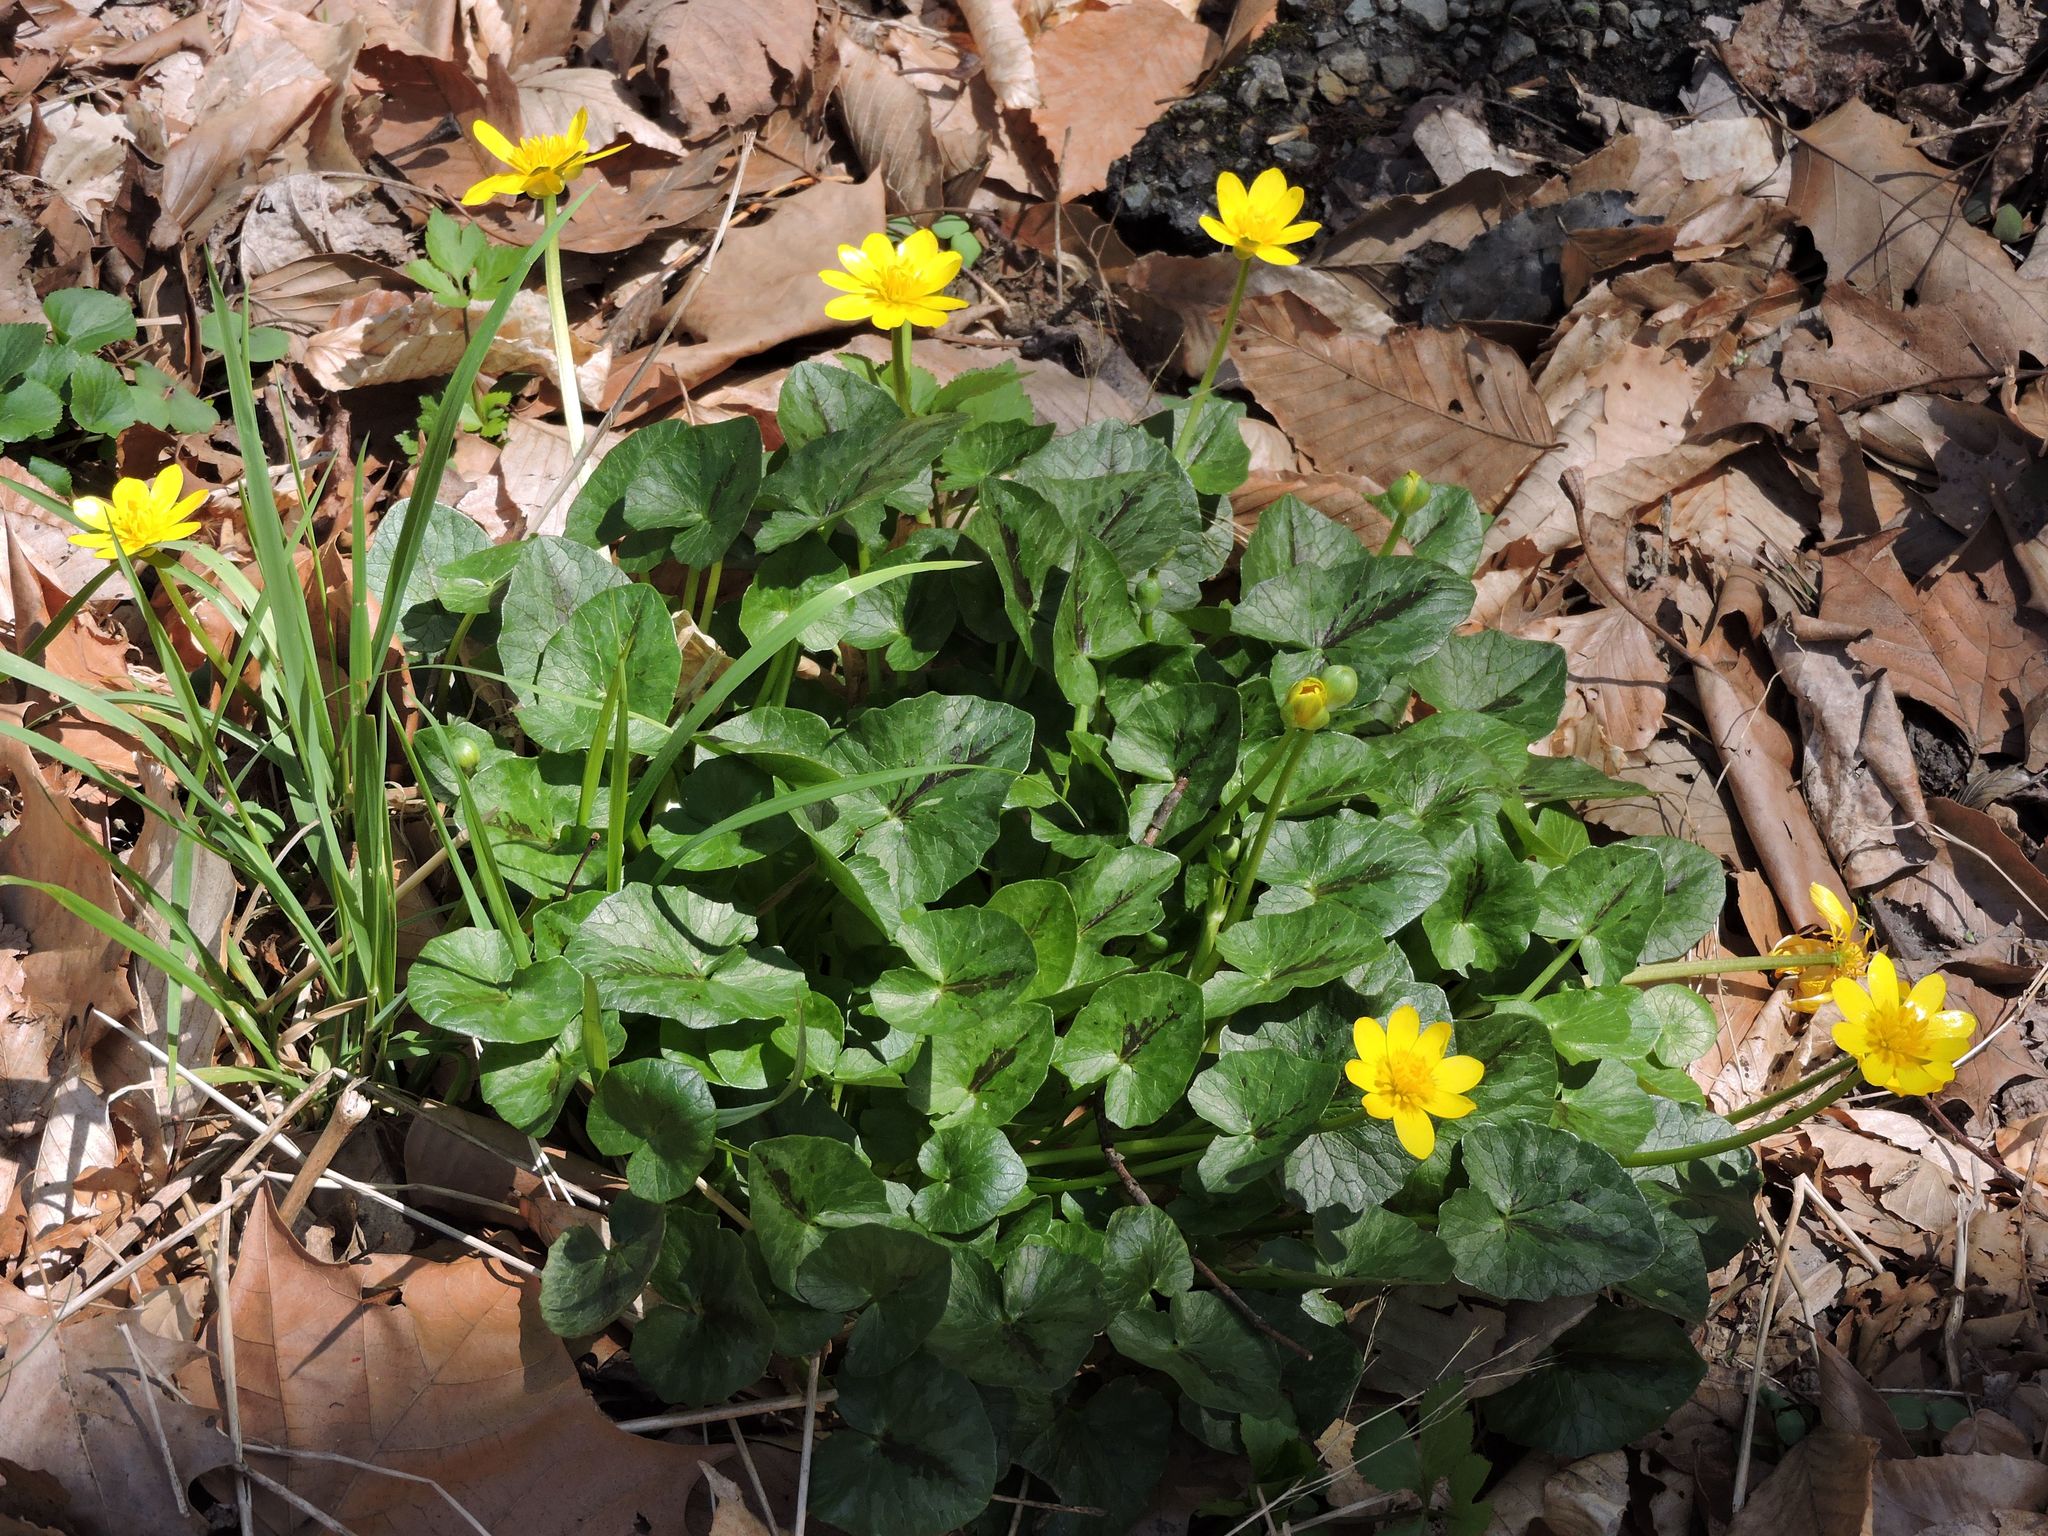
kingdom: Plantae
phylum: Tracheophyta
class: Magnoliopsida
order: Ranunculales
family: Ranunculaceae
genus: Ficaria
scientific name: Ficaria verna
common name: Lesser celandine
